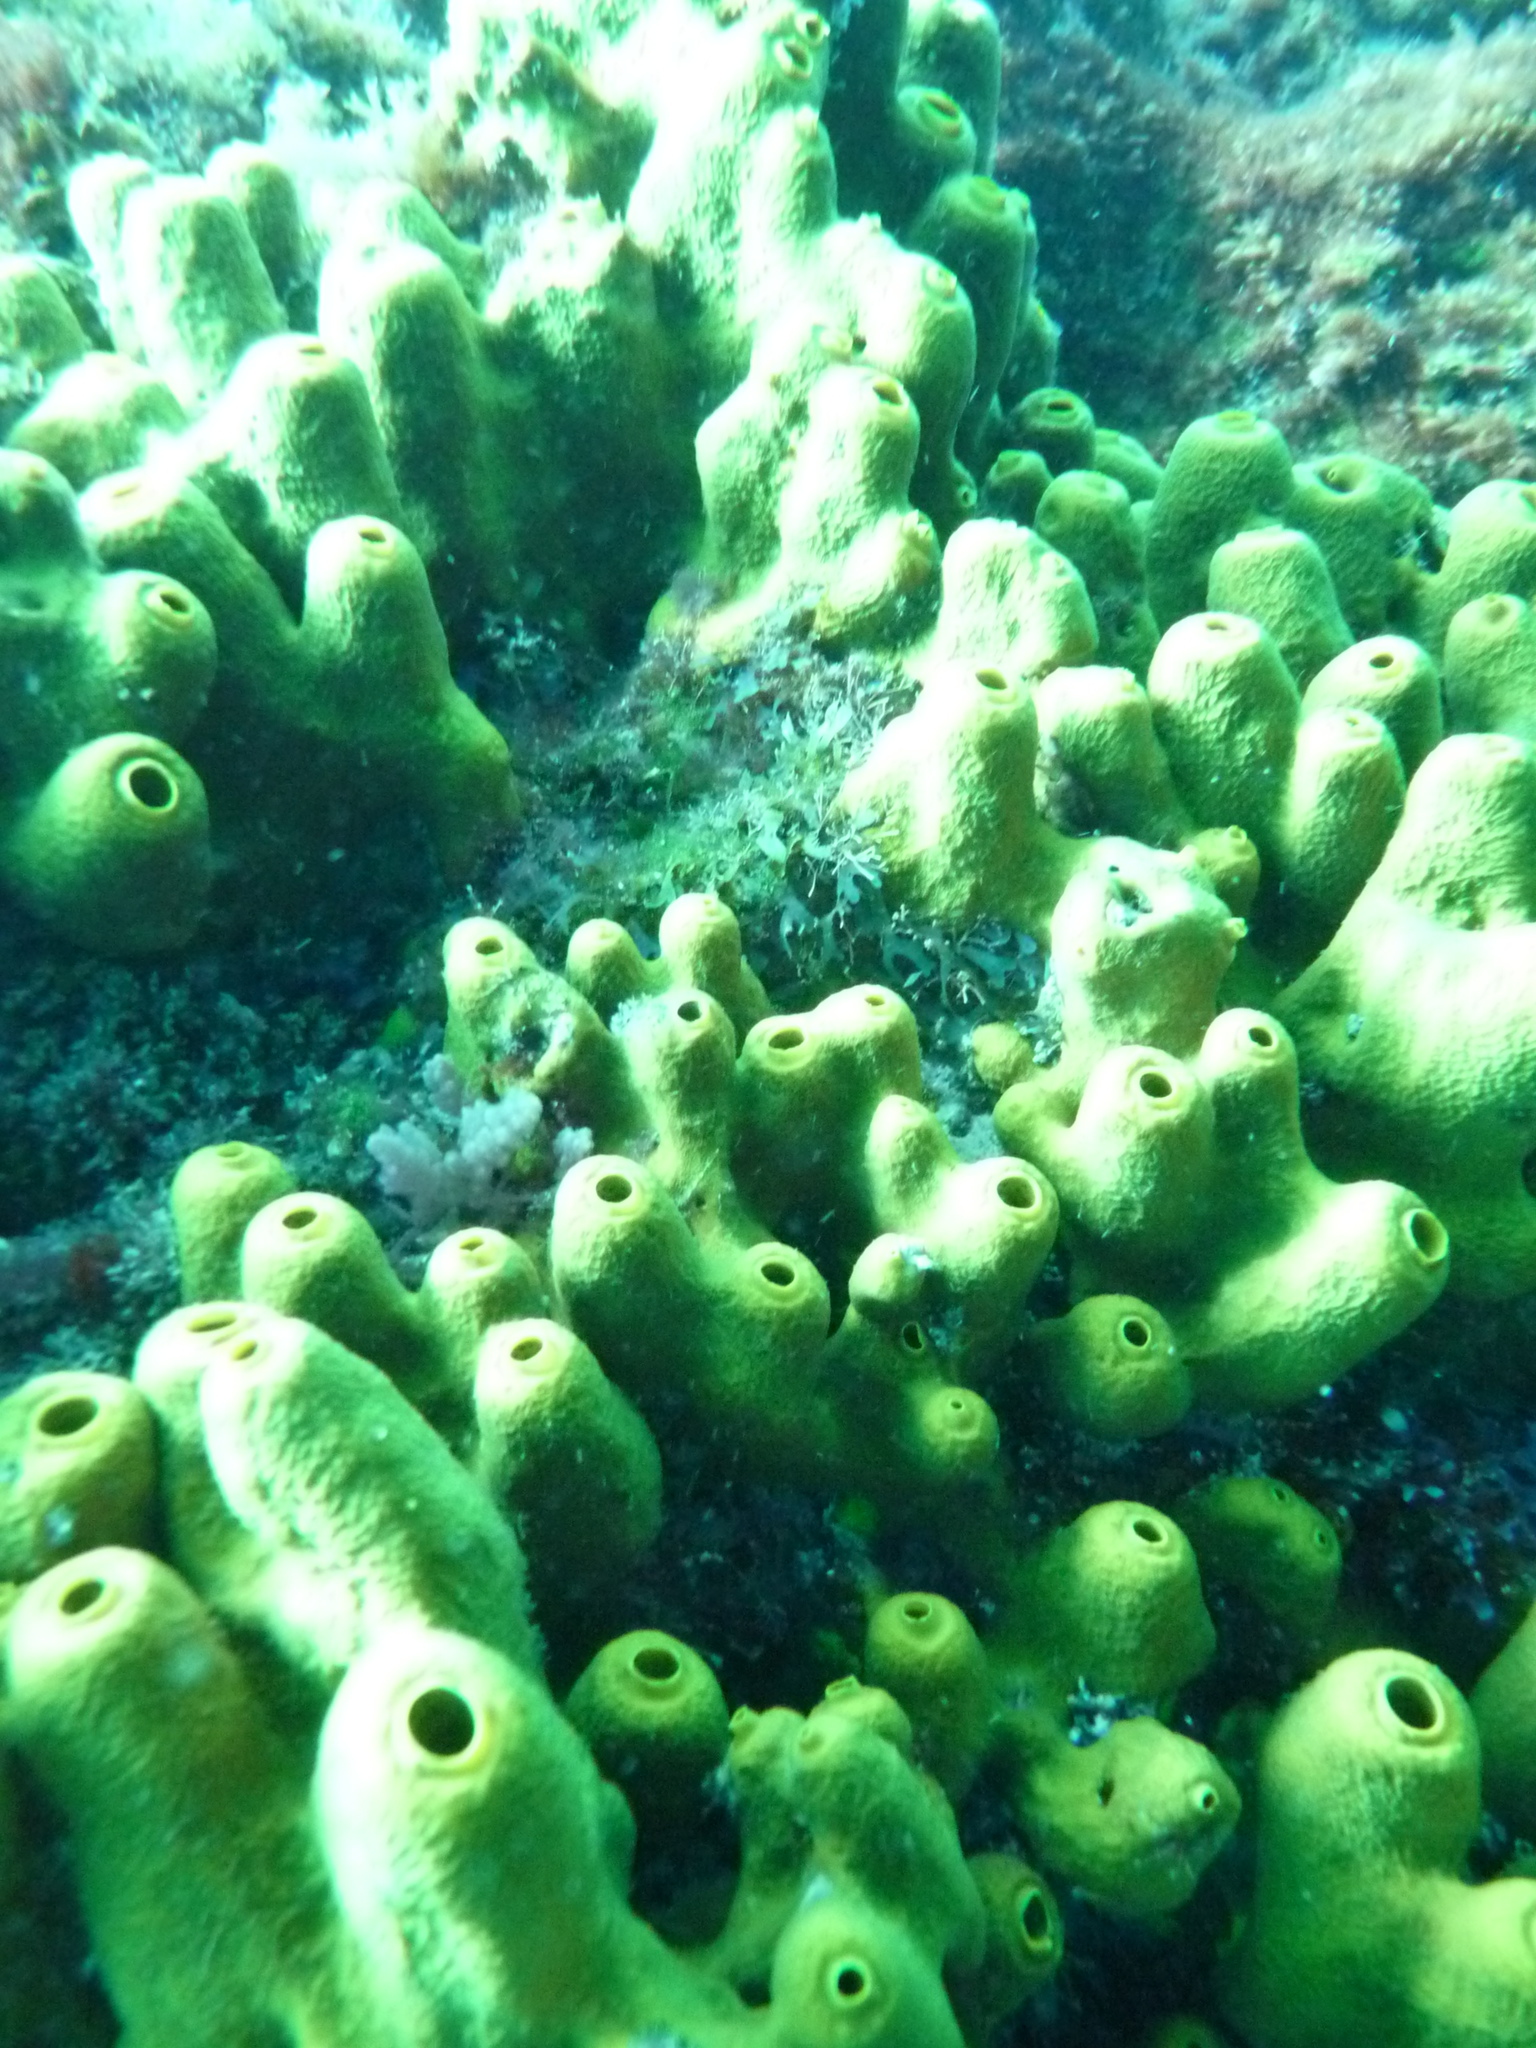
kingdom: Animalia
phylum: Porifera
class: Demospongiae
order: Verongiida
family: Aplysinidae
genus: Aplysina
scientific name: Aplysina aerophoba
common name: Aureate sponge
